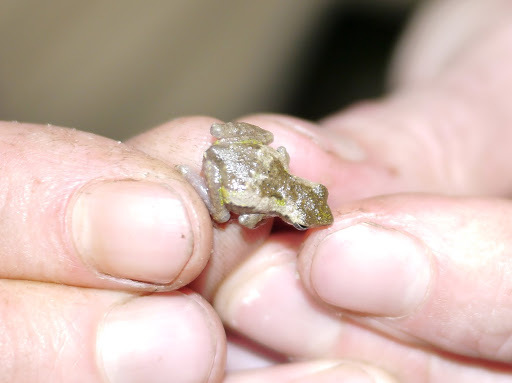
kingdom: Animalia
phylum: Chordata
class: Amphibia
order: Anura
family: Bufonidae
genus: Nectophryne
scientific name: Nectophryne afra
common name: African tree toad
